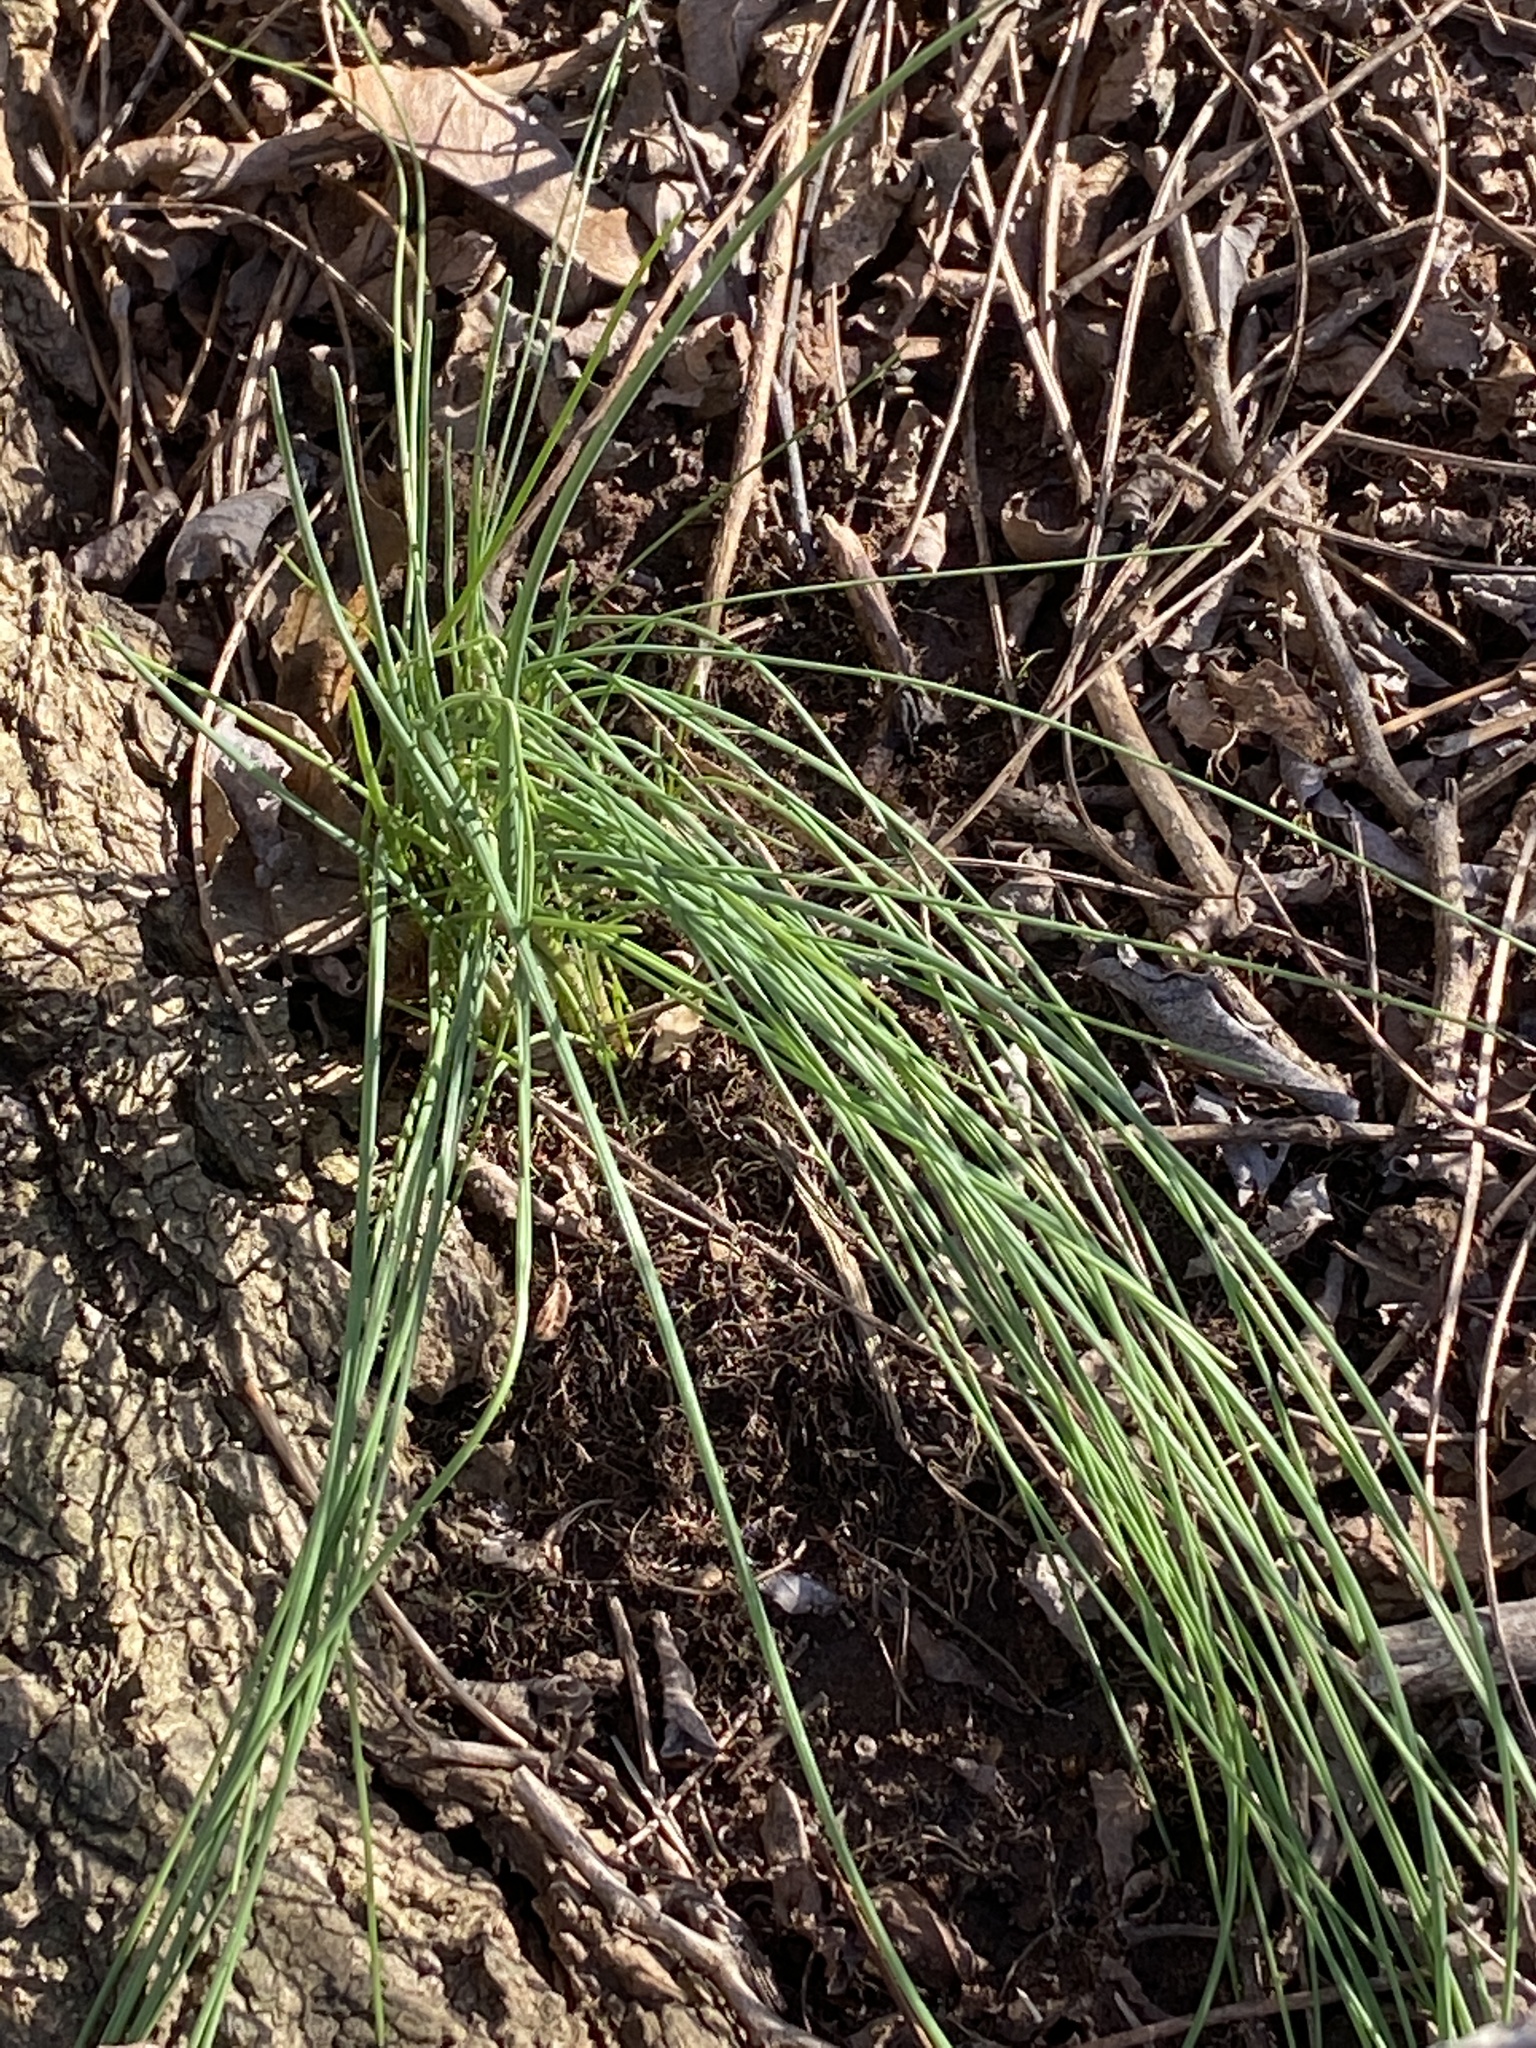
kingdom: Plantae
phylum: Tracheophyta
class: Liliopsida
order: Asparagales
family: Amaryllidaceae
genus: Allium
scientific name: Allium vineale
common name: Crow garlic
